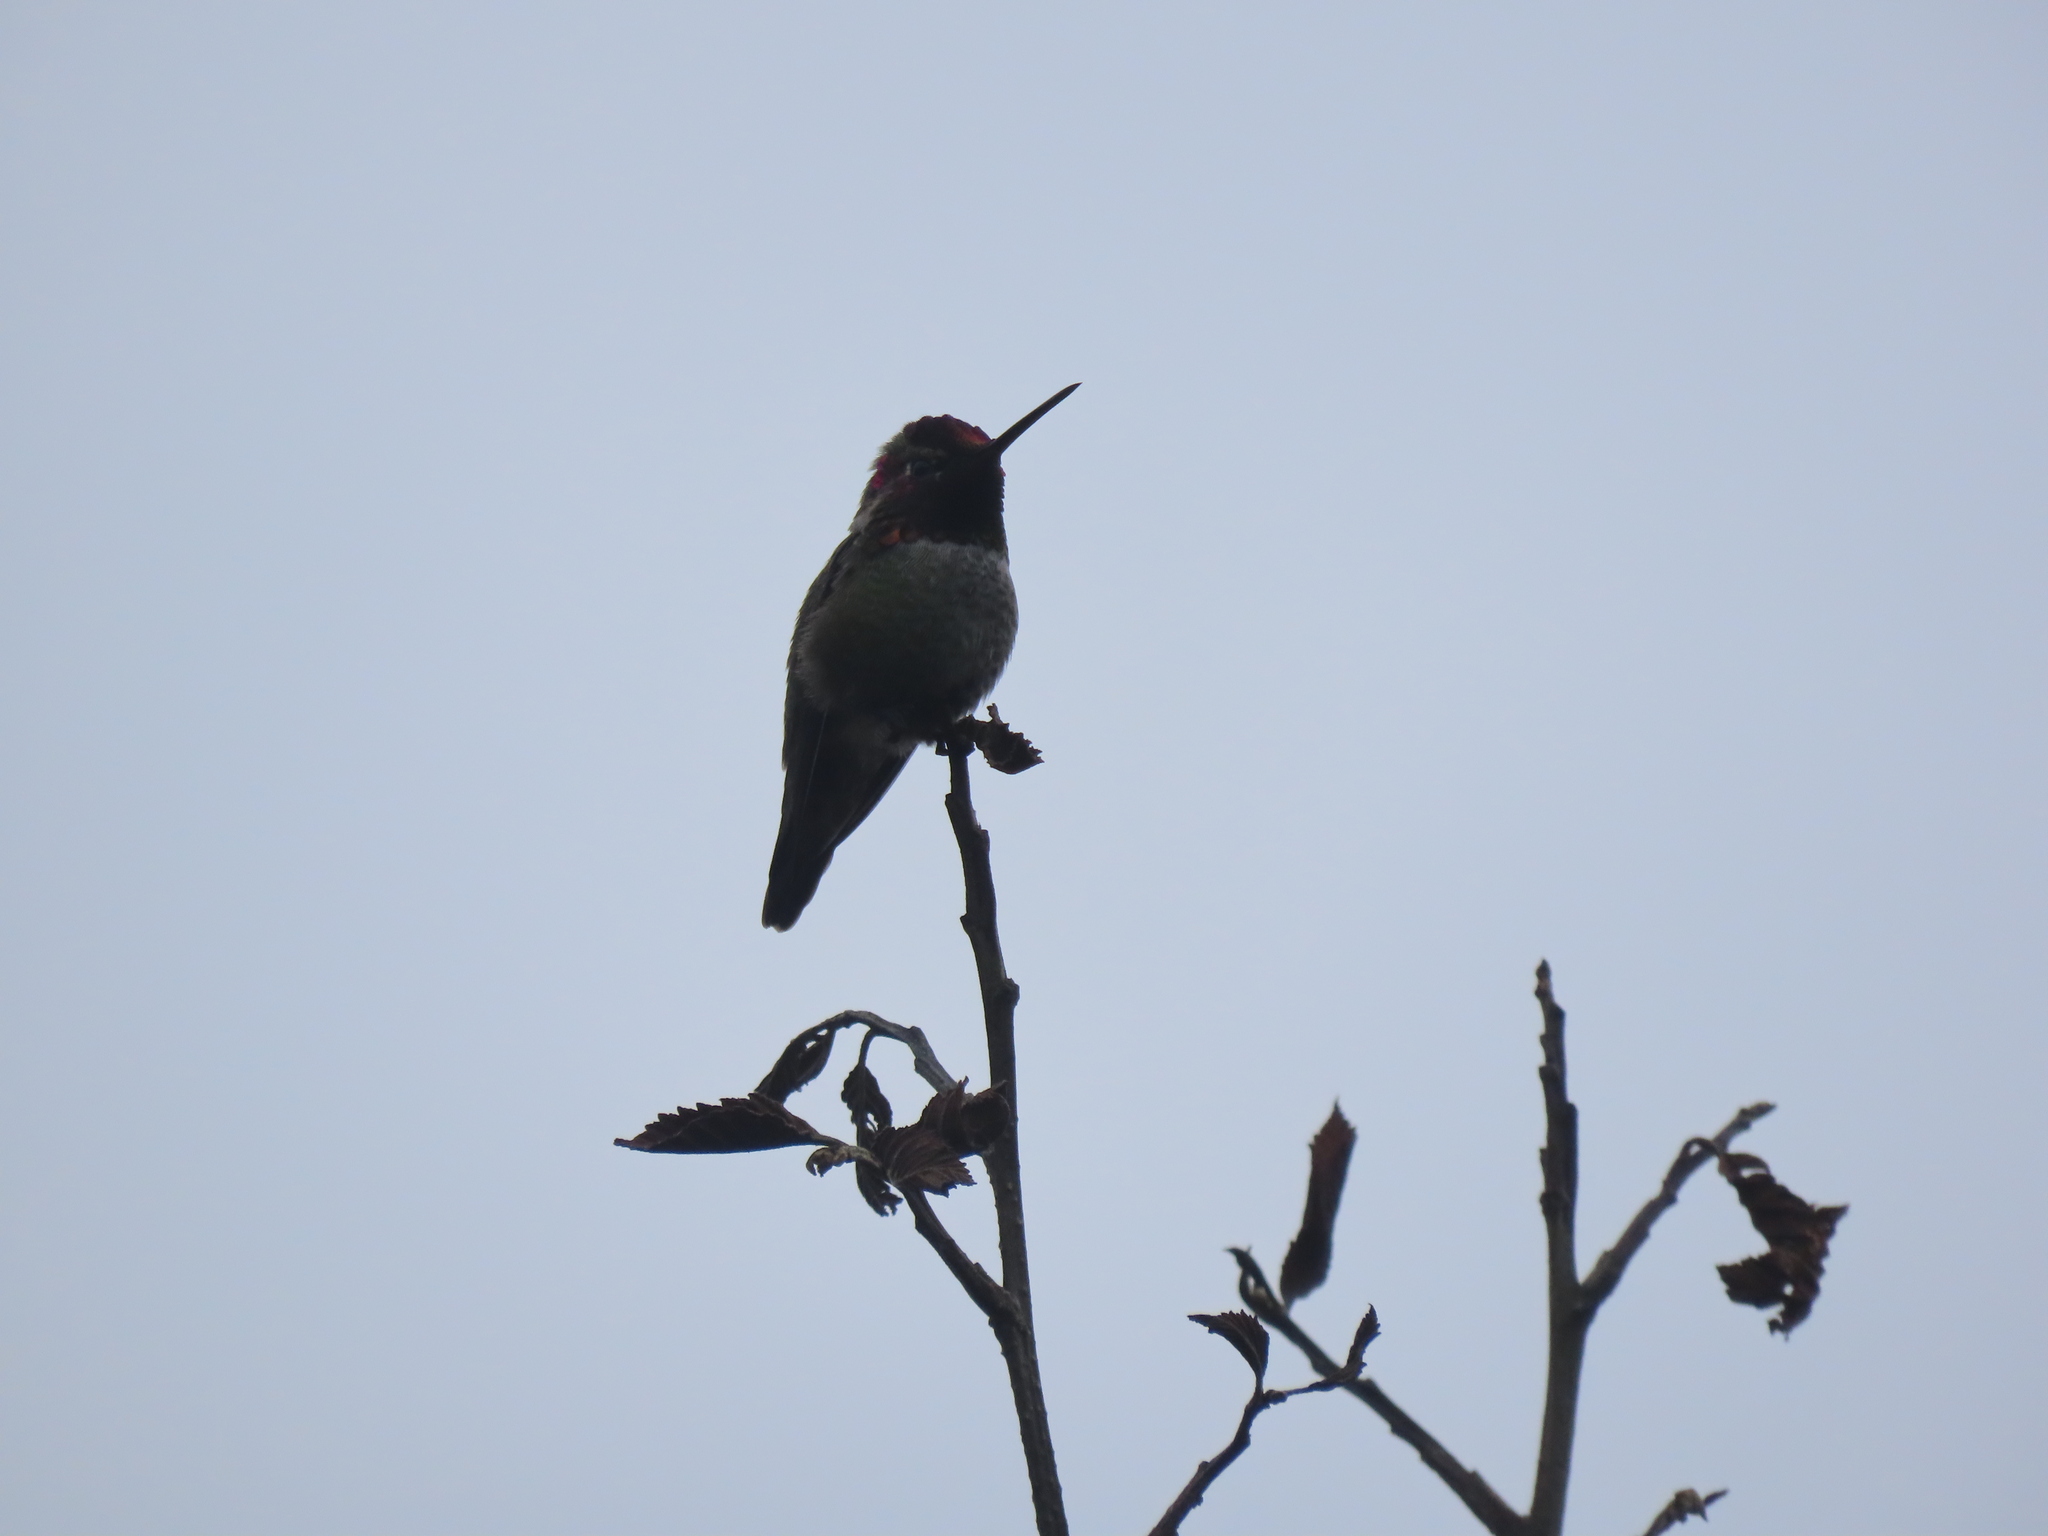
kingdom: Animalia
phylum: Chordata
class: Aves
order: Apodiformes
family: Trochilidae
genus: Calypte
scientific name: Calypte anna
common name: Anna's hummingbird
